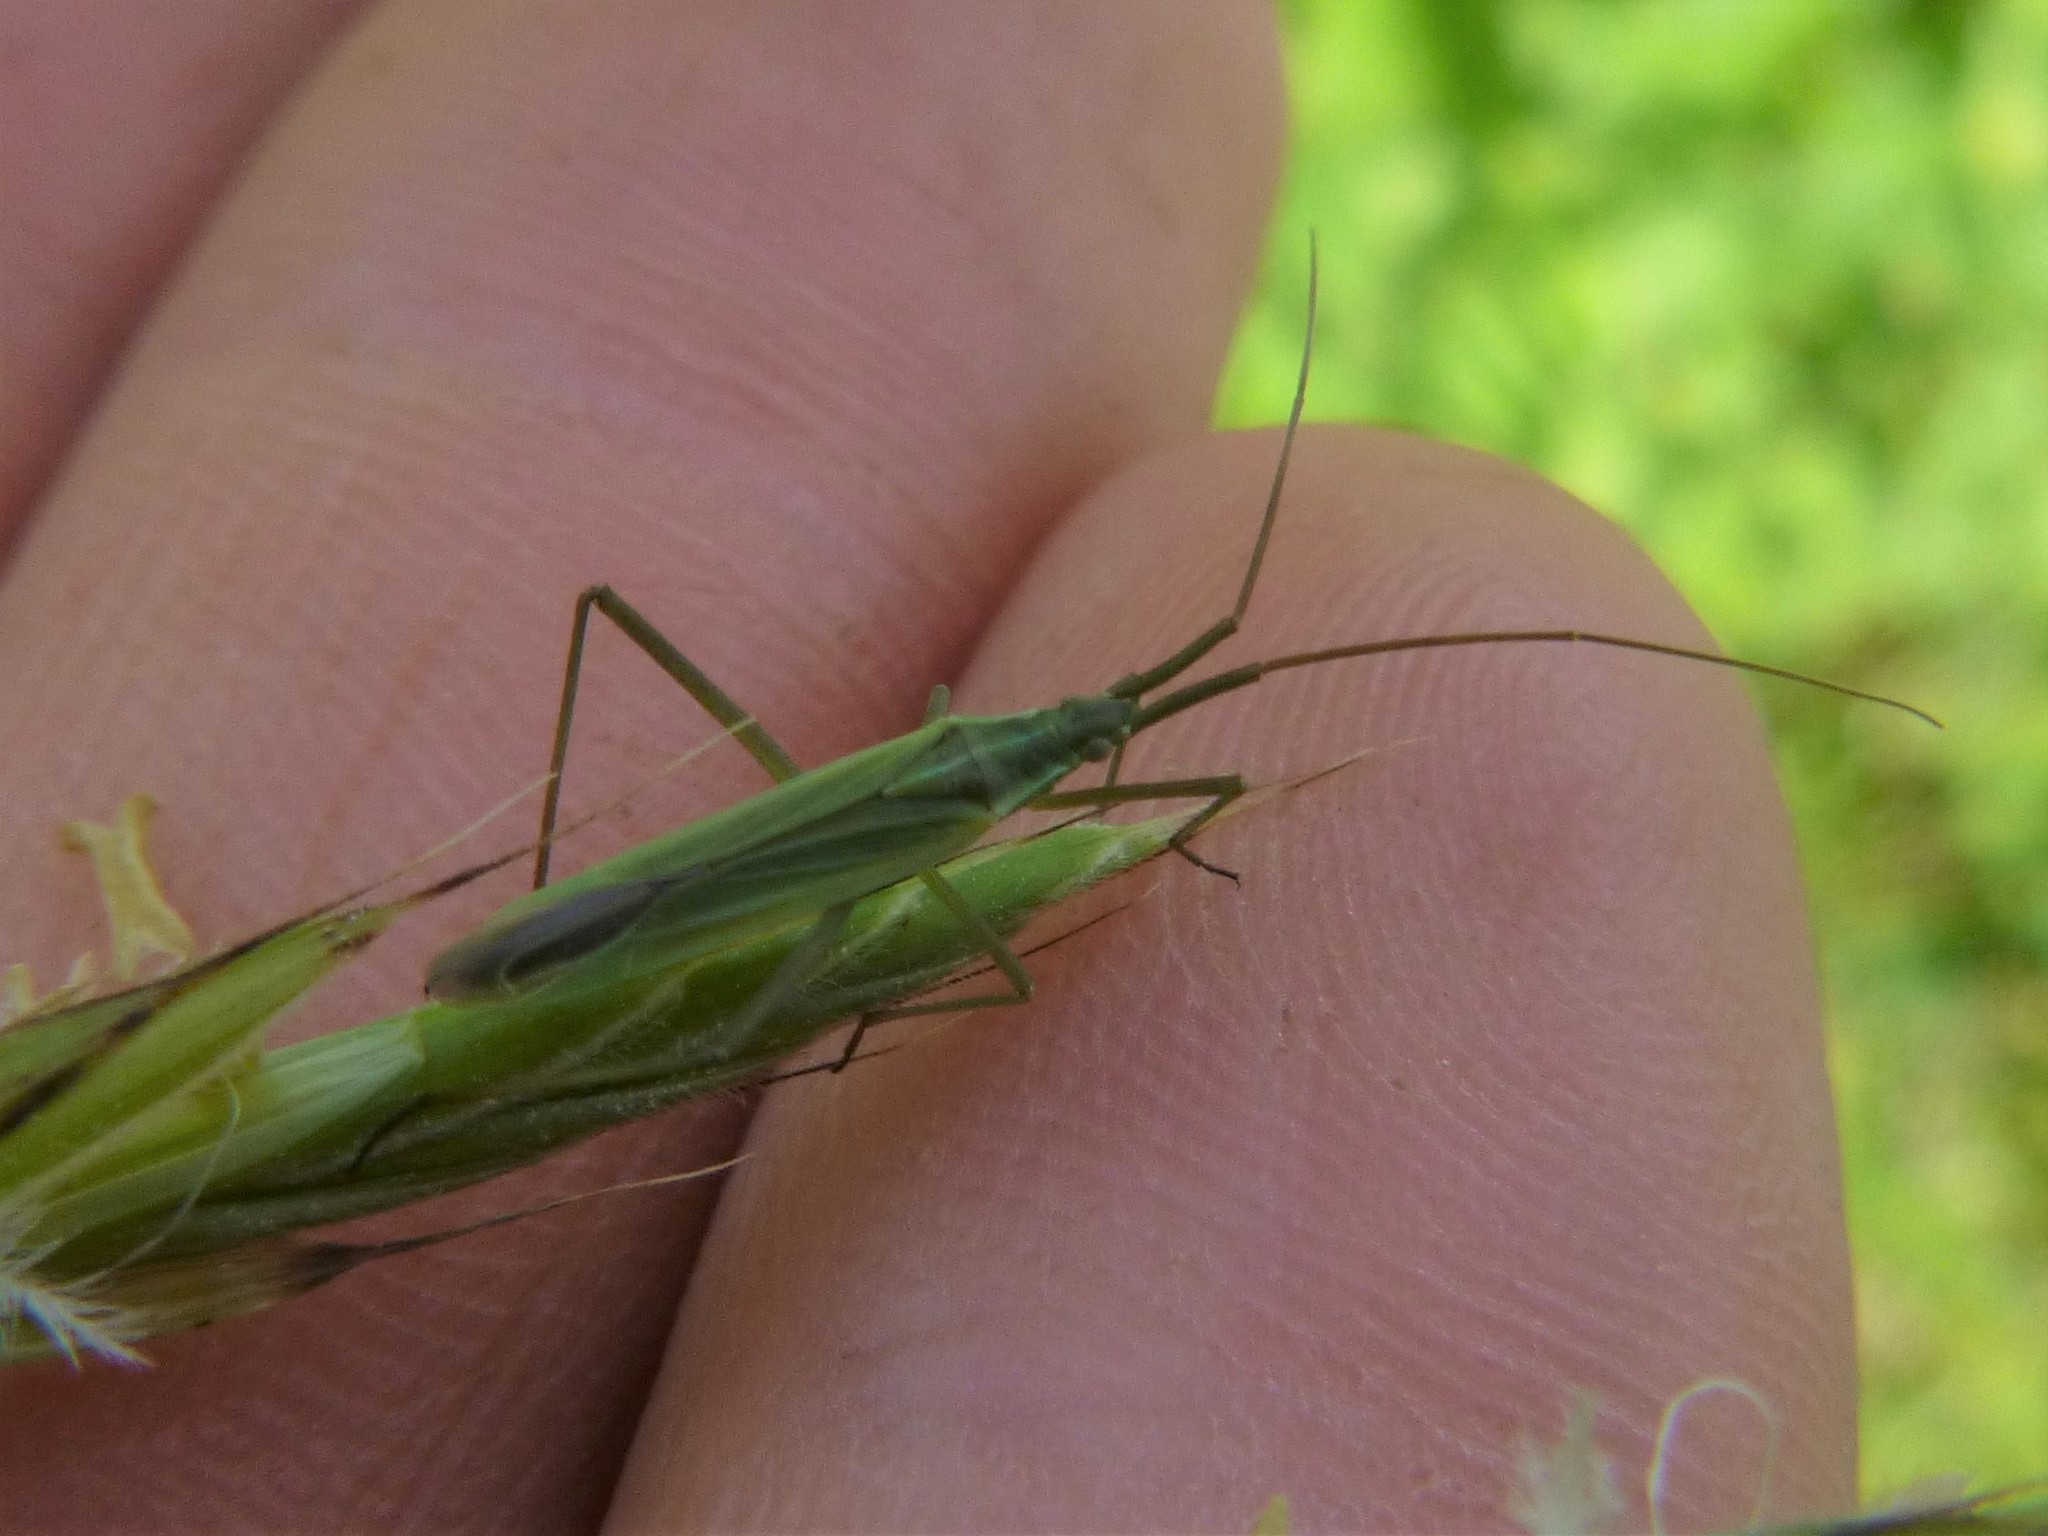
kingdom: Animalia
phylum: Arthropoda
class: Insecta
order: Hemiptera
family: Miridae
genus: Megaloceroea
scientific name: Megaloceroea recticornis
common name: Plant bug
